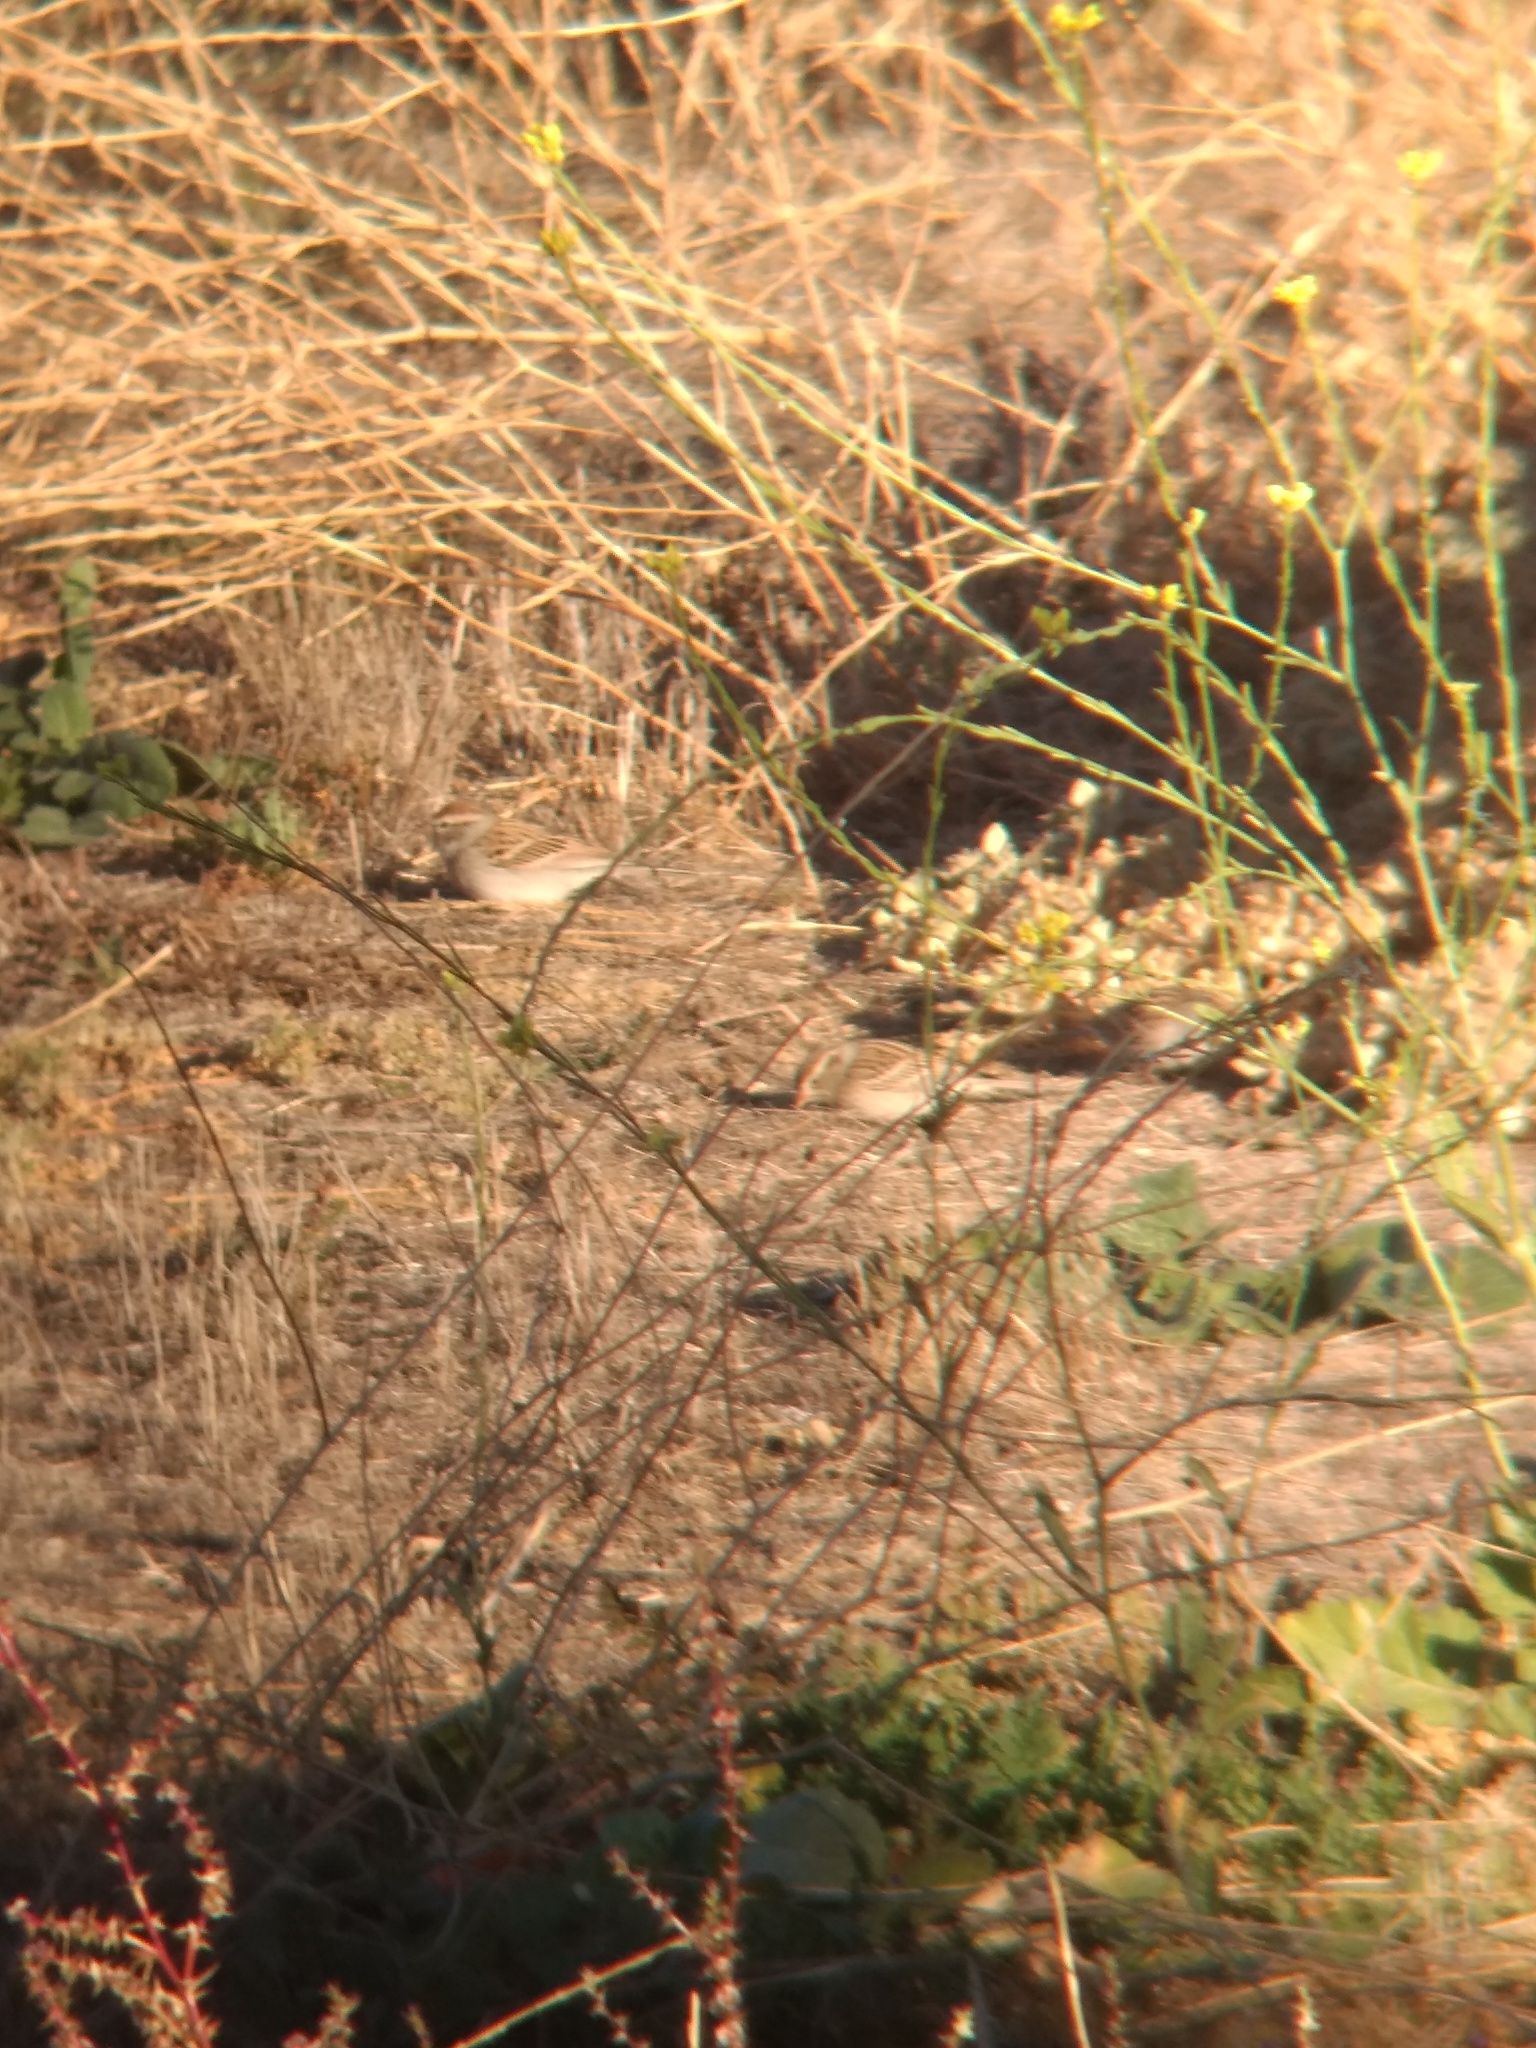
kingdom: Animalia
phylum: Chordata
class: Aves
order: Passeriformes
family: Passerellidae
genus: Spizella
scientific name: Spizella passerina
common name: Chipping sparrow
